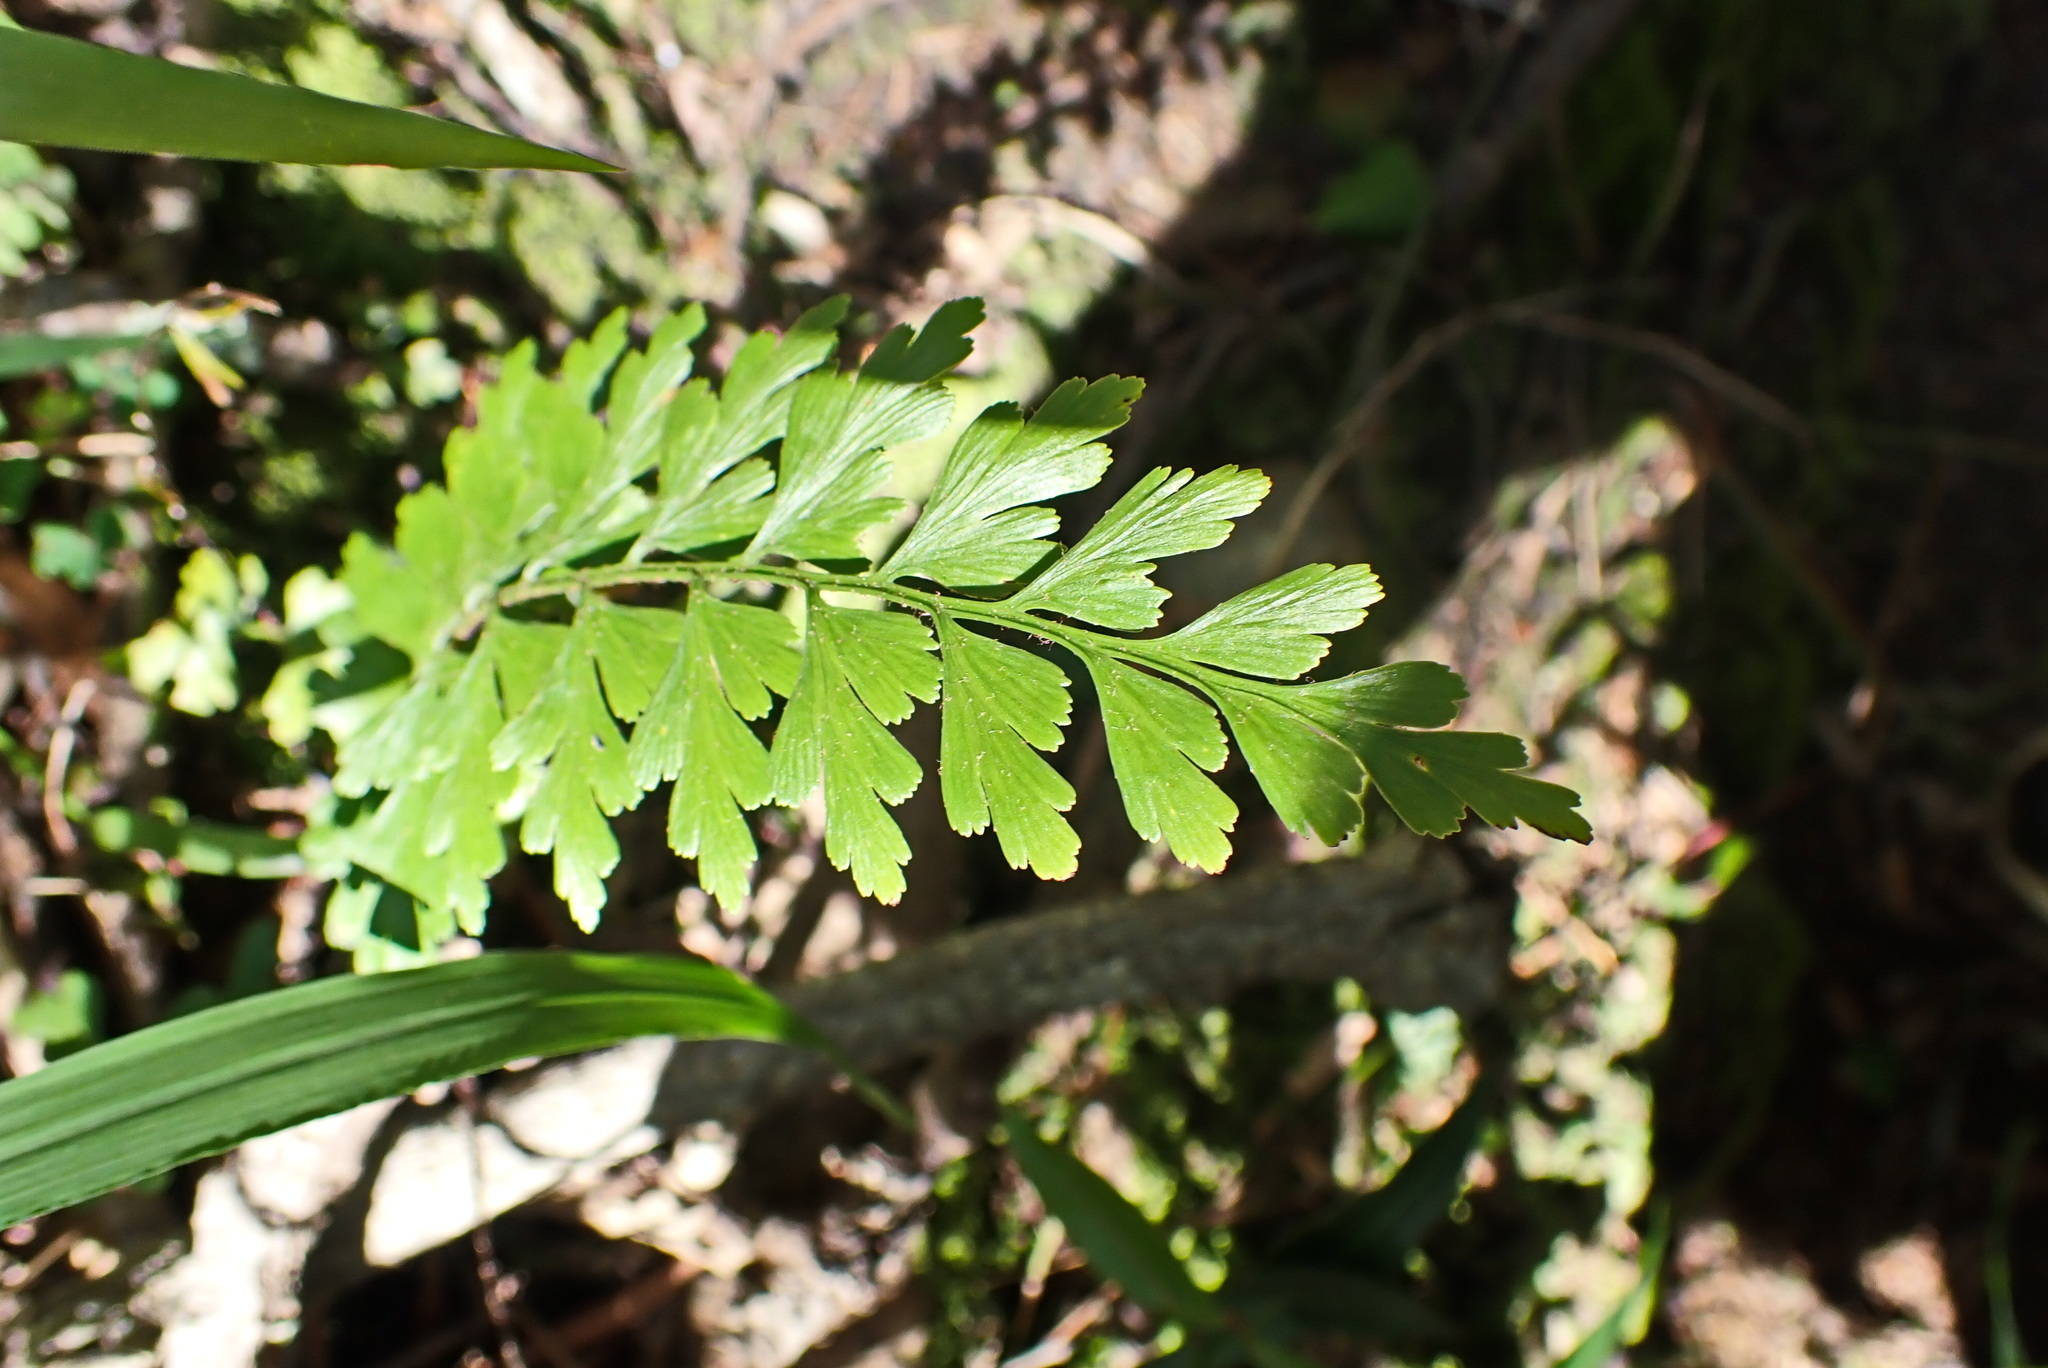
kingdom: Plantae
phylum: Tracheophyta
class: Polypodiopsida
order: Polypodiales
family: Aspleniaceae
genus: Asplenium
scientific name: Asplenium aethiopicum
